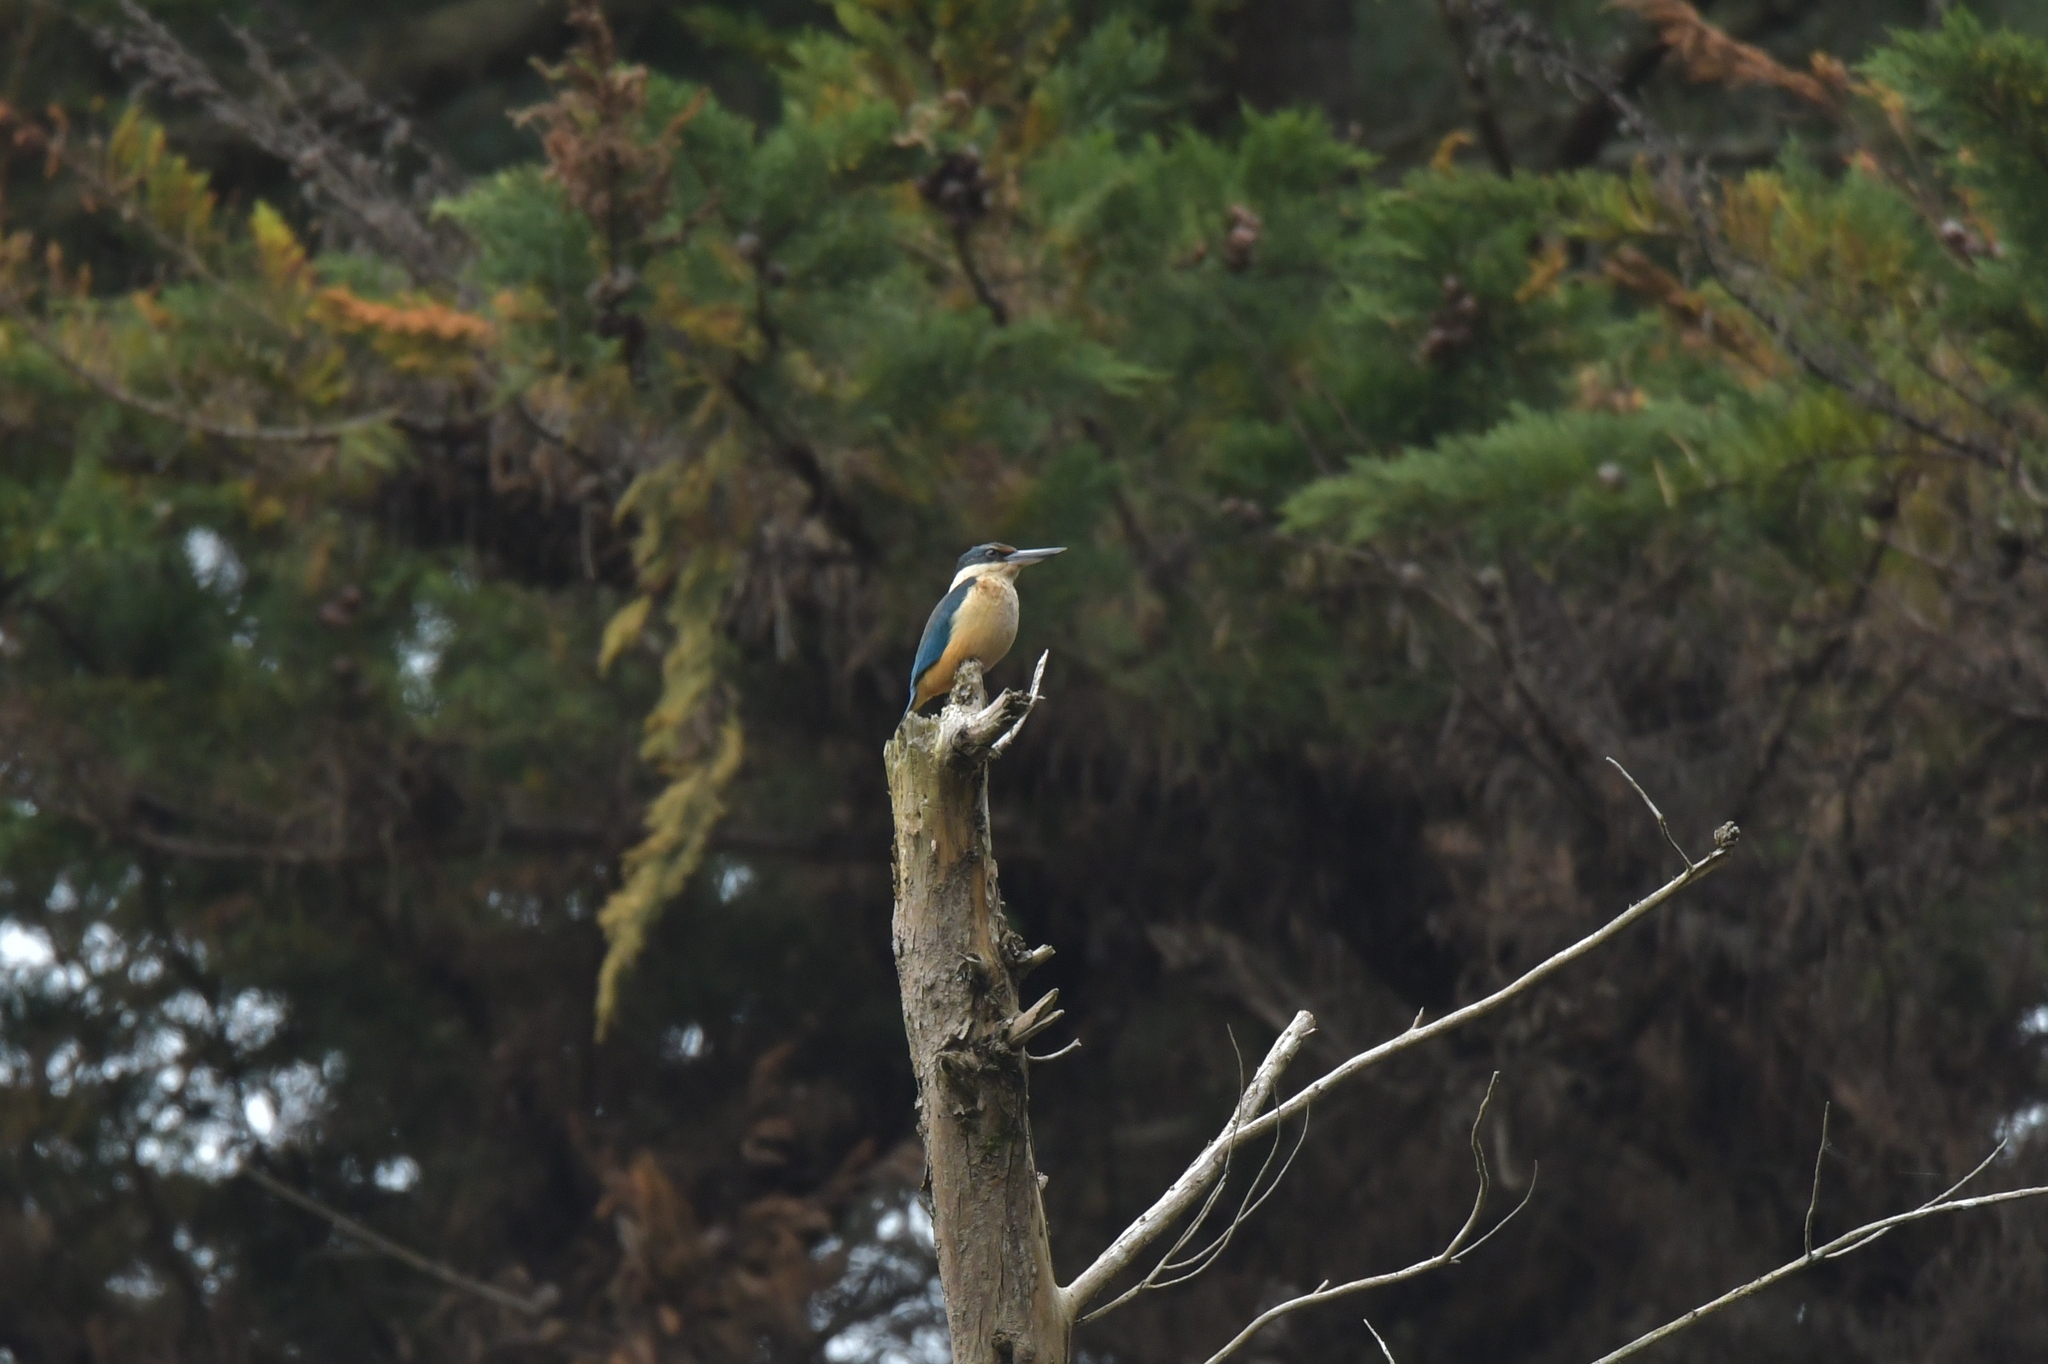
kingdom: Animalia
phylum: Chordata
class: Aves
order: Coraciiformes
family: Alcedinidae
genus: Todiramphus
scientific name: Todiramphus sanctus
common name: Sacred kingfisher
